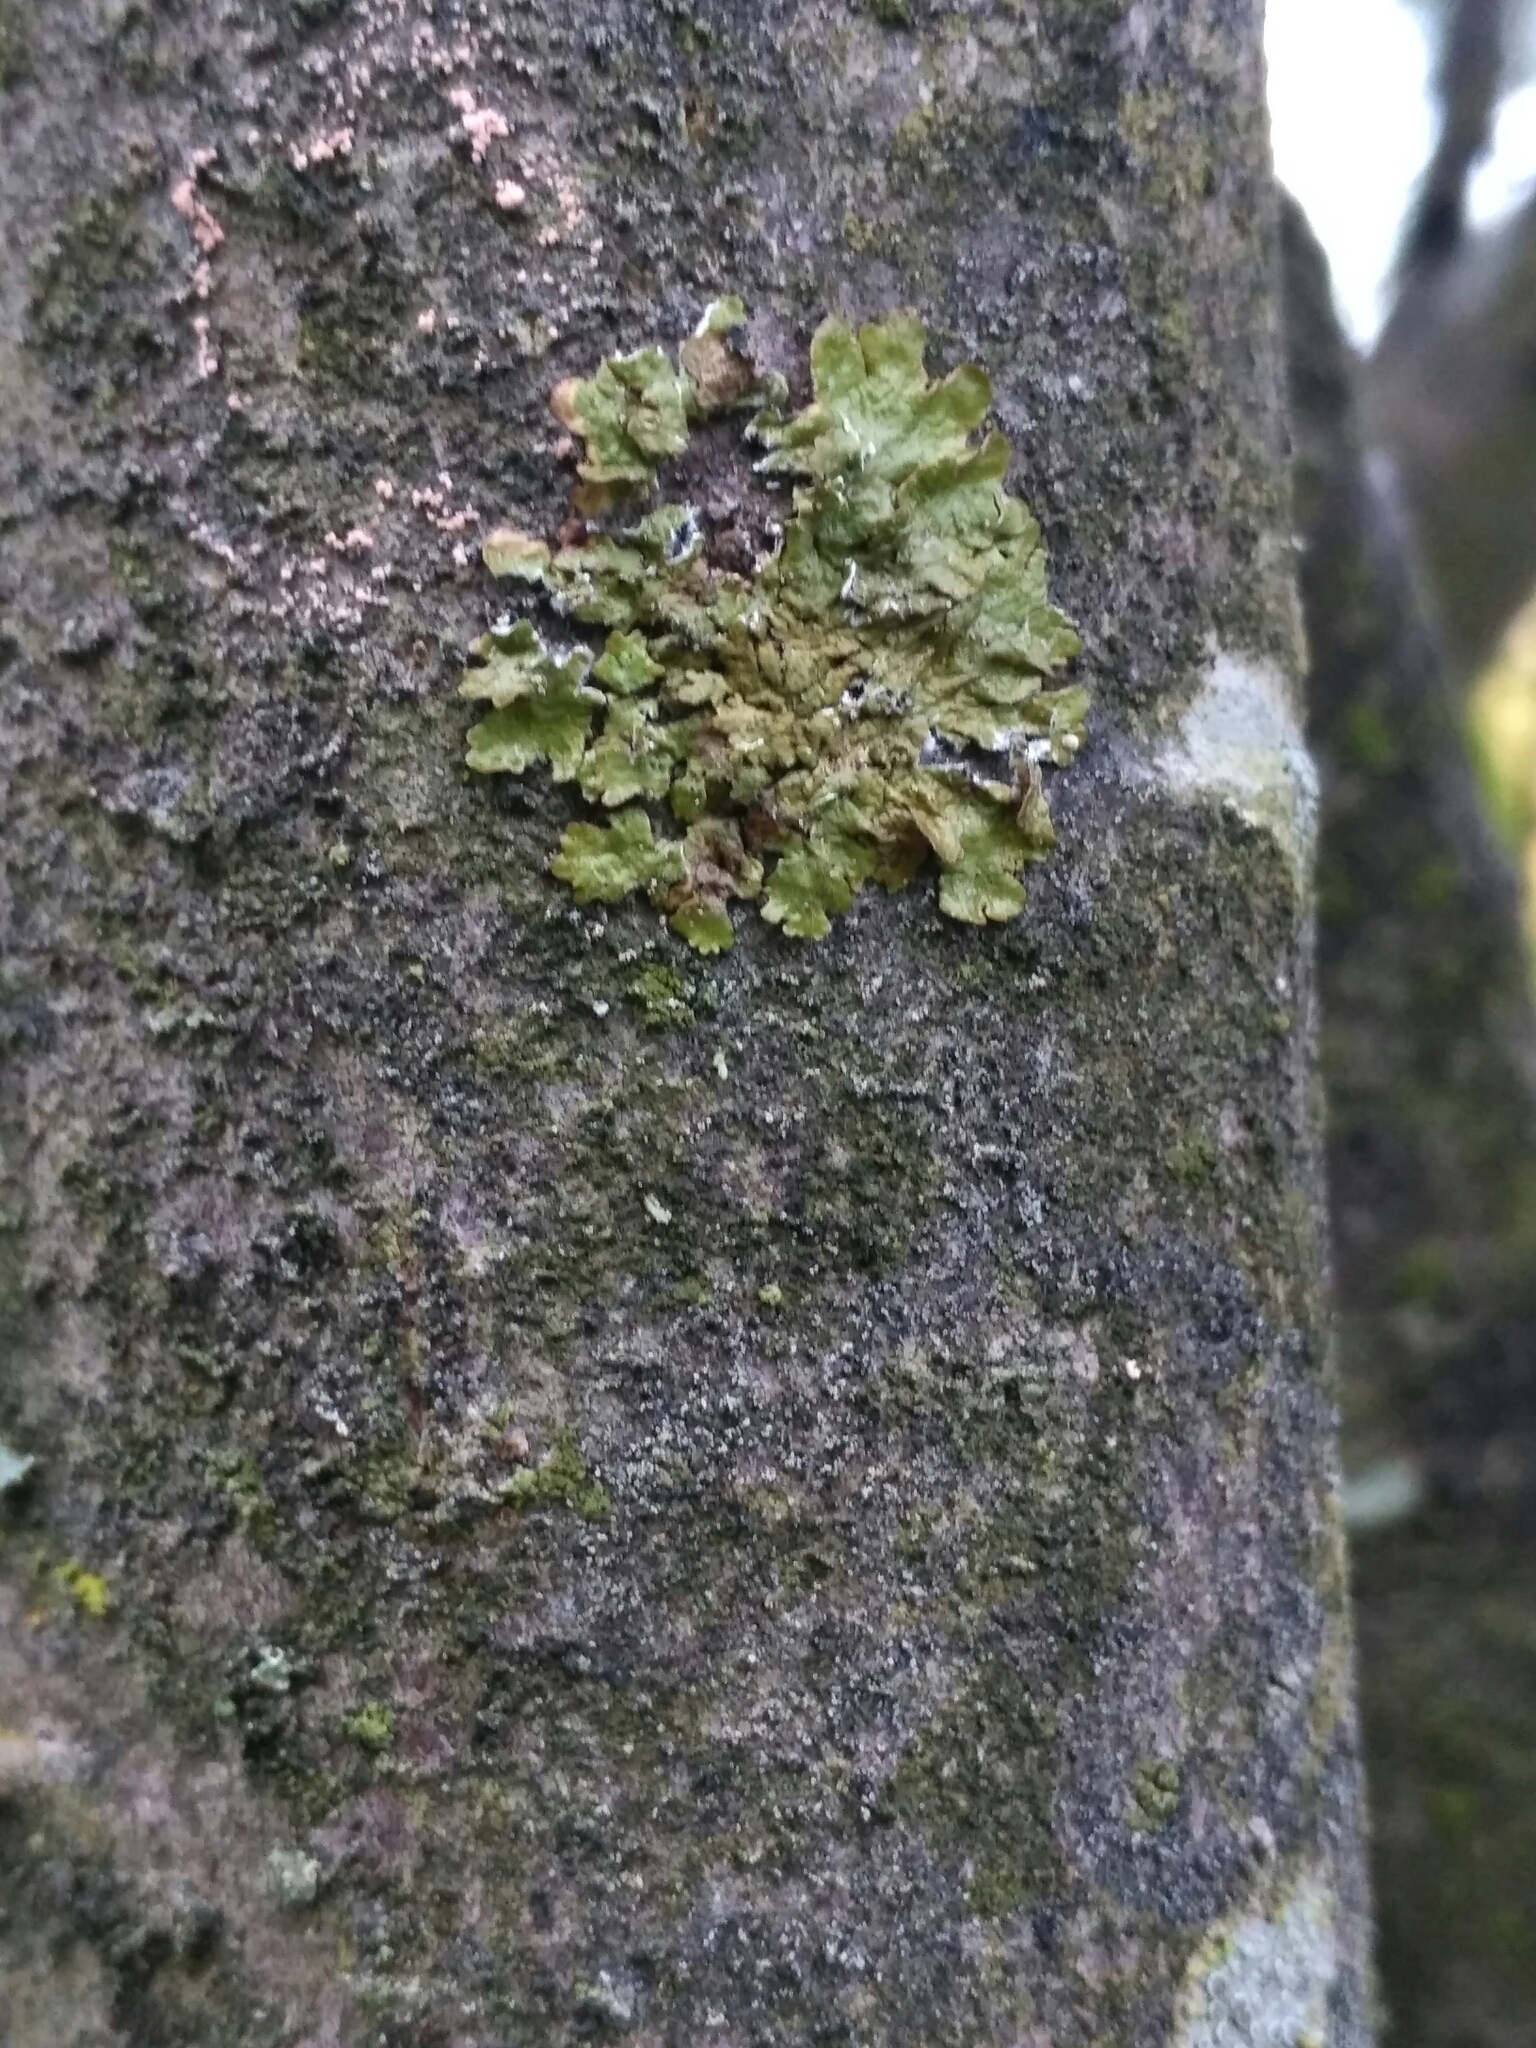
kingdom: Fungi
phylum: Ascomycota
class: Lecanoromycetes
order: Lecanorales
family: Parmeliaceae
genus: Melanelixia
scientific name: Melanelixia glabratula
